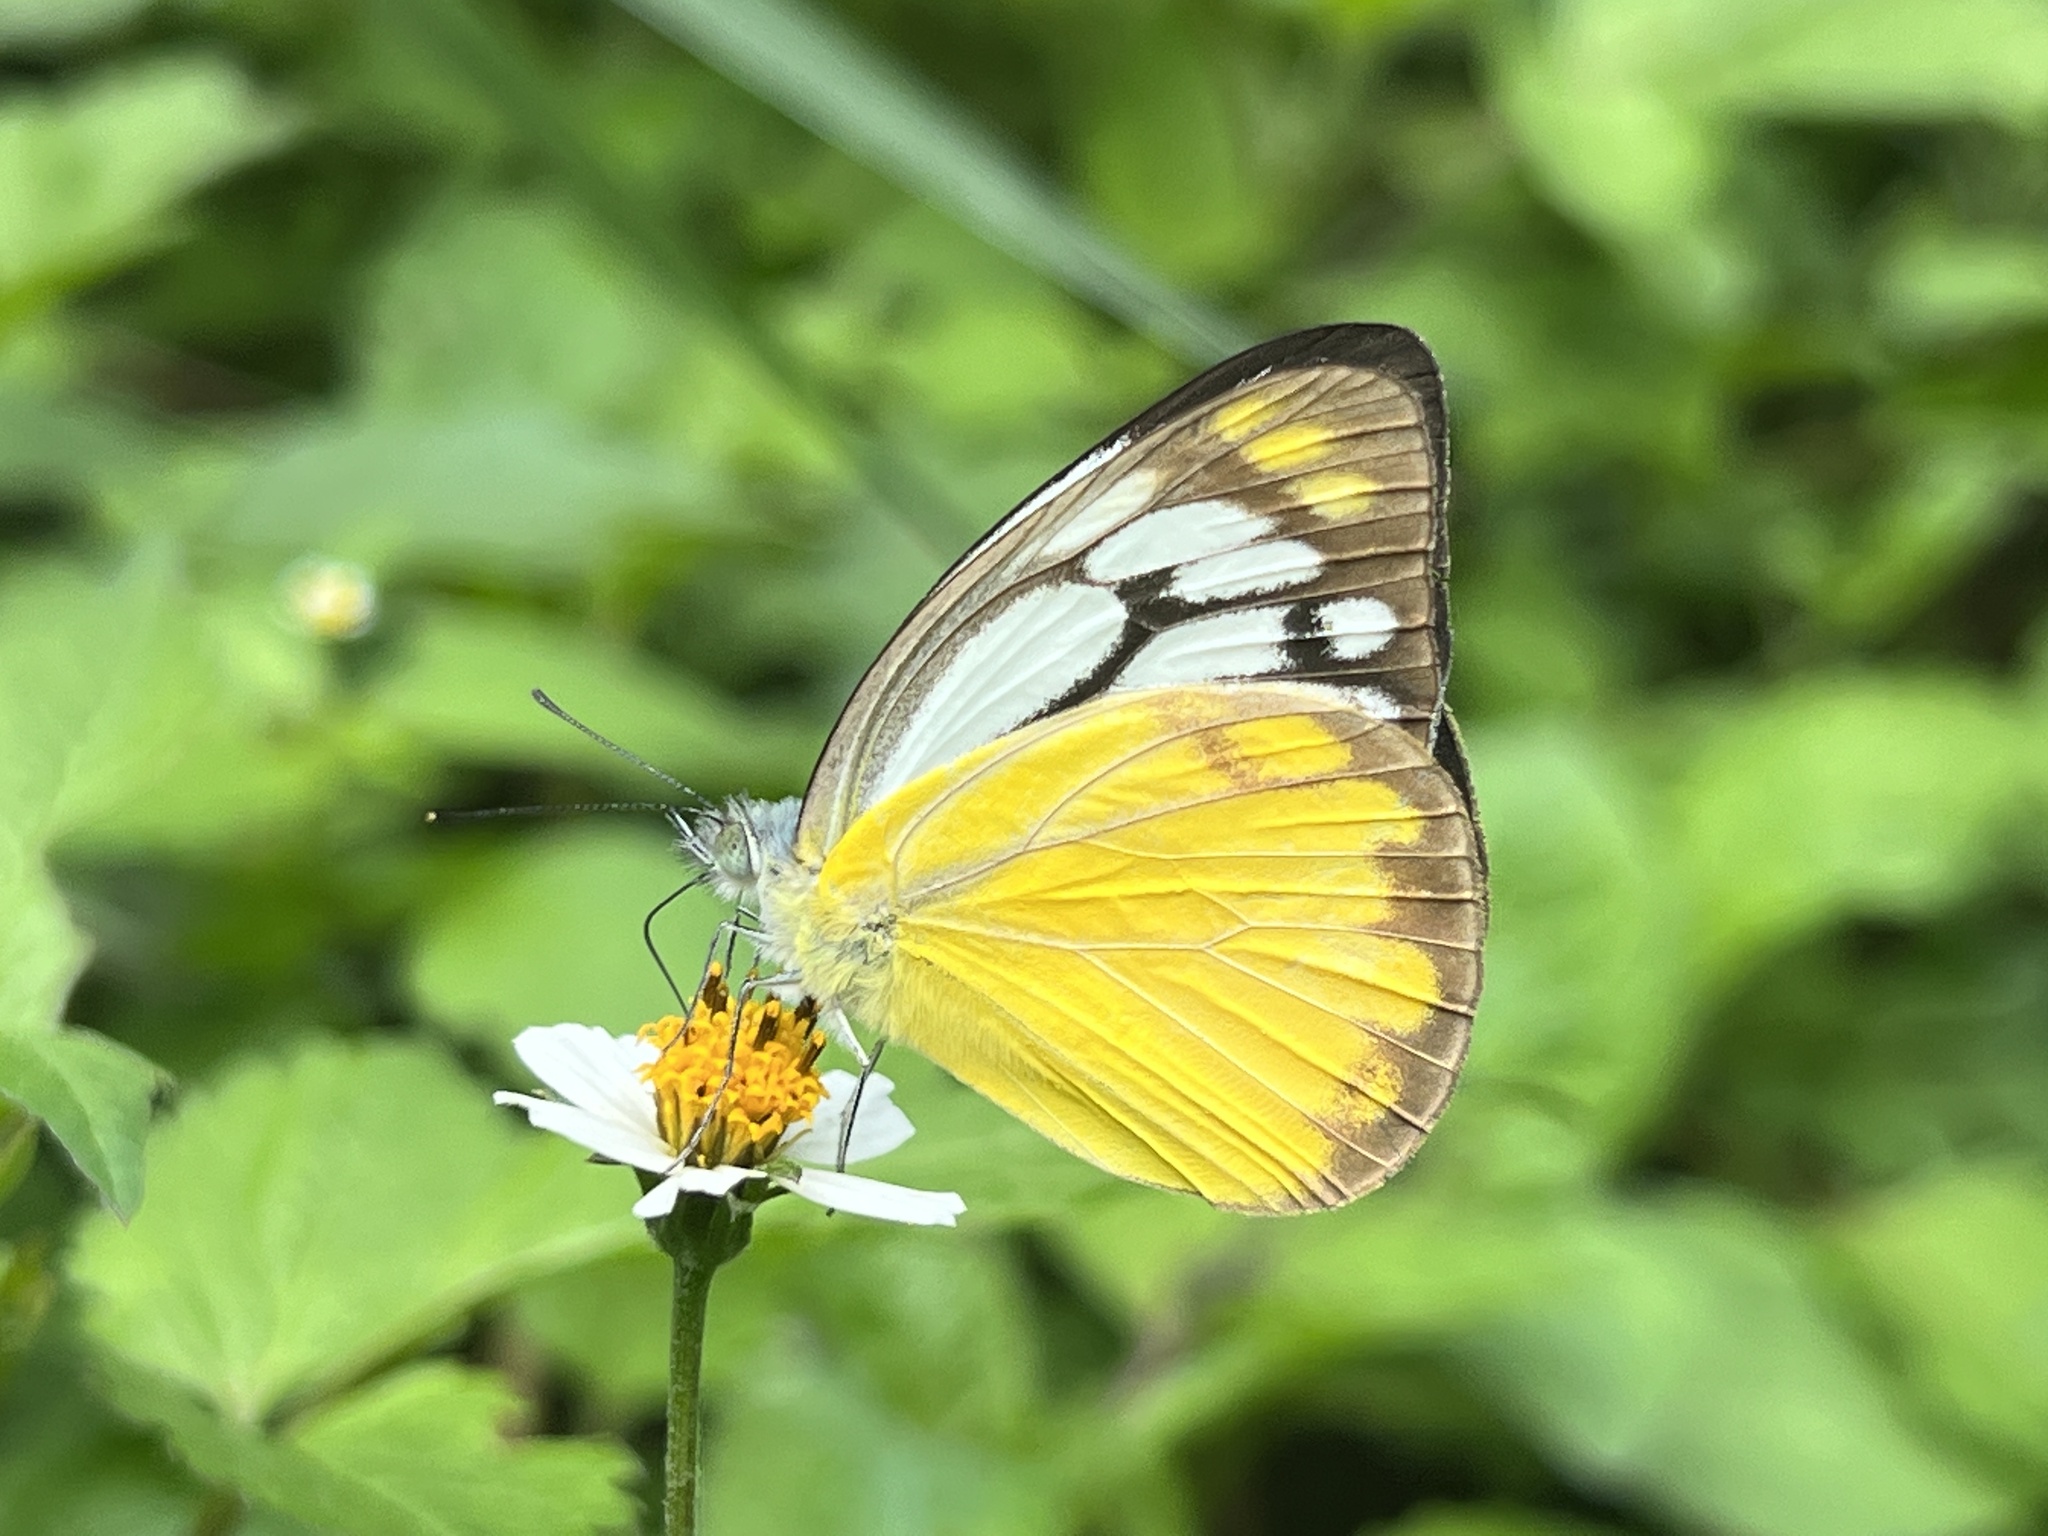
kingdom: Animalia
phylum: Arthropoda
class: Insecta
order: Lepidoptera
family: Pieridae
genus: Cepora
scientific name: Cepora aspasia
